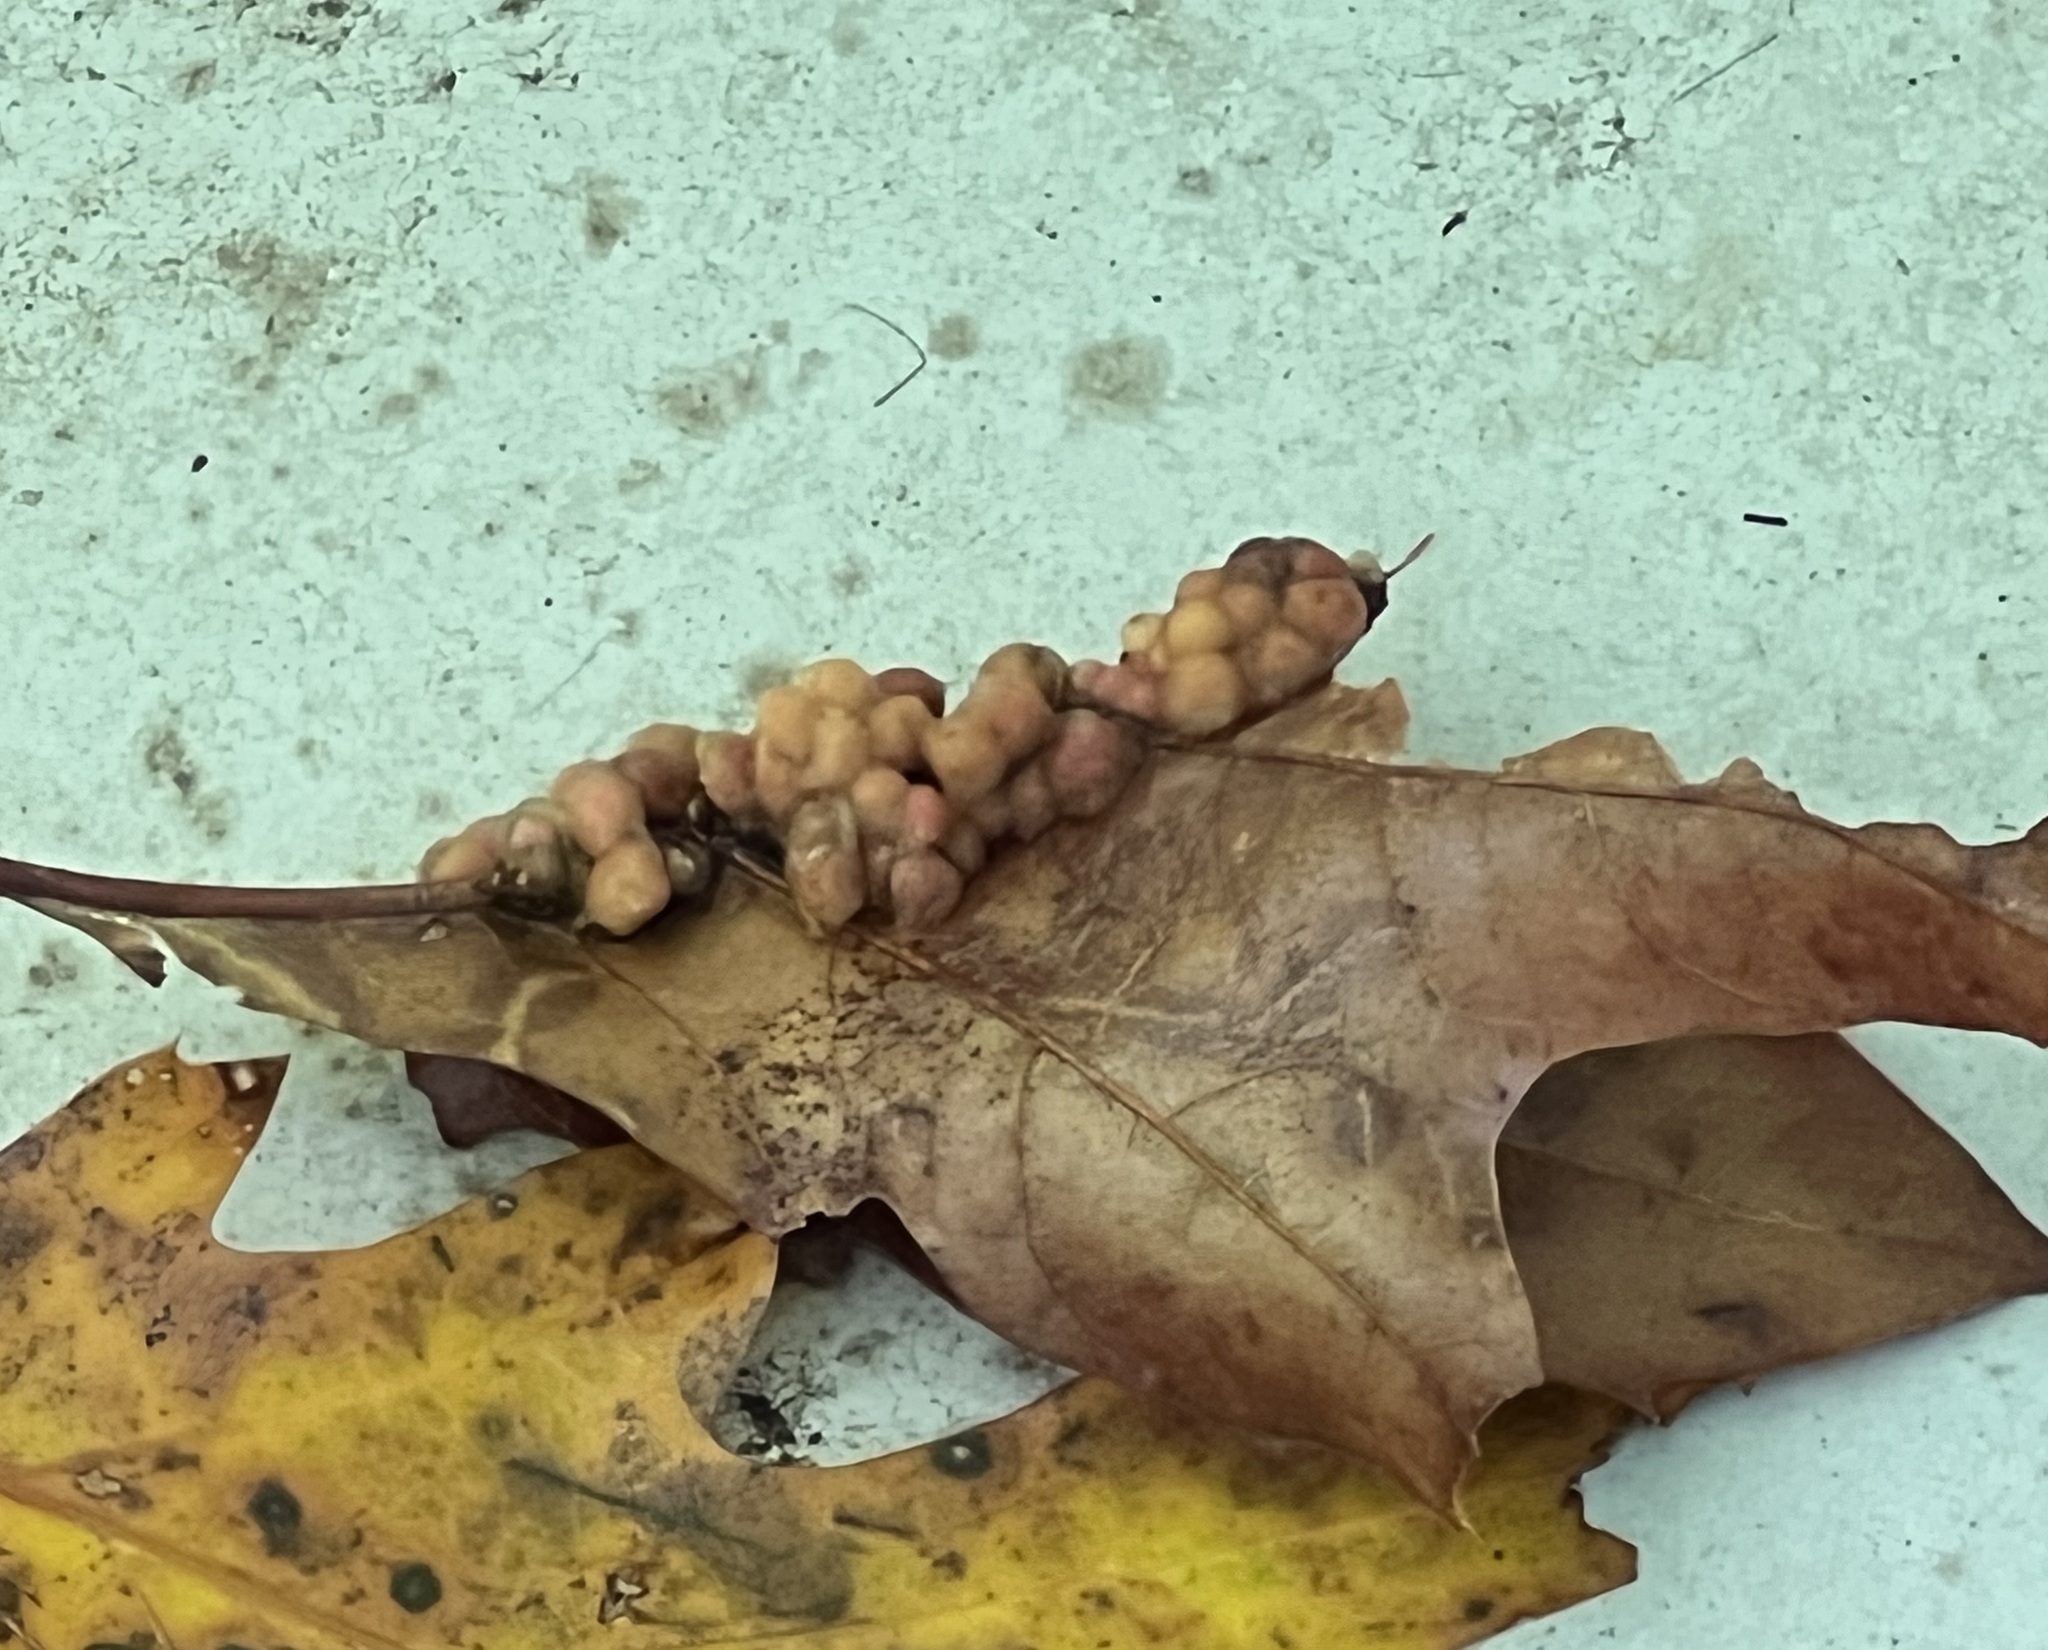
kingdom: Animalia
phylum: Arthropoda
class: Insecta
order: Hymenoptera
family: Cynipidae
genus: Callirhytis
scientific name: Callirhytis
